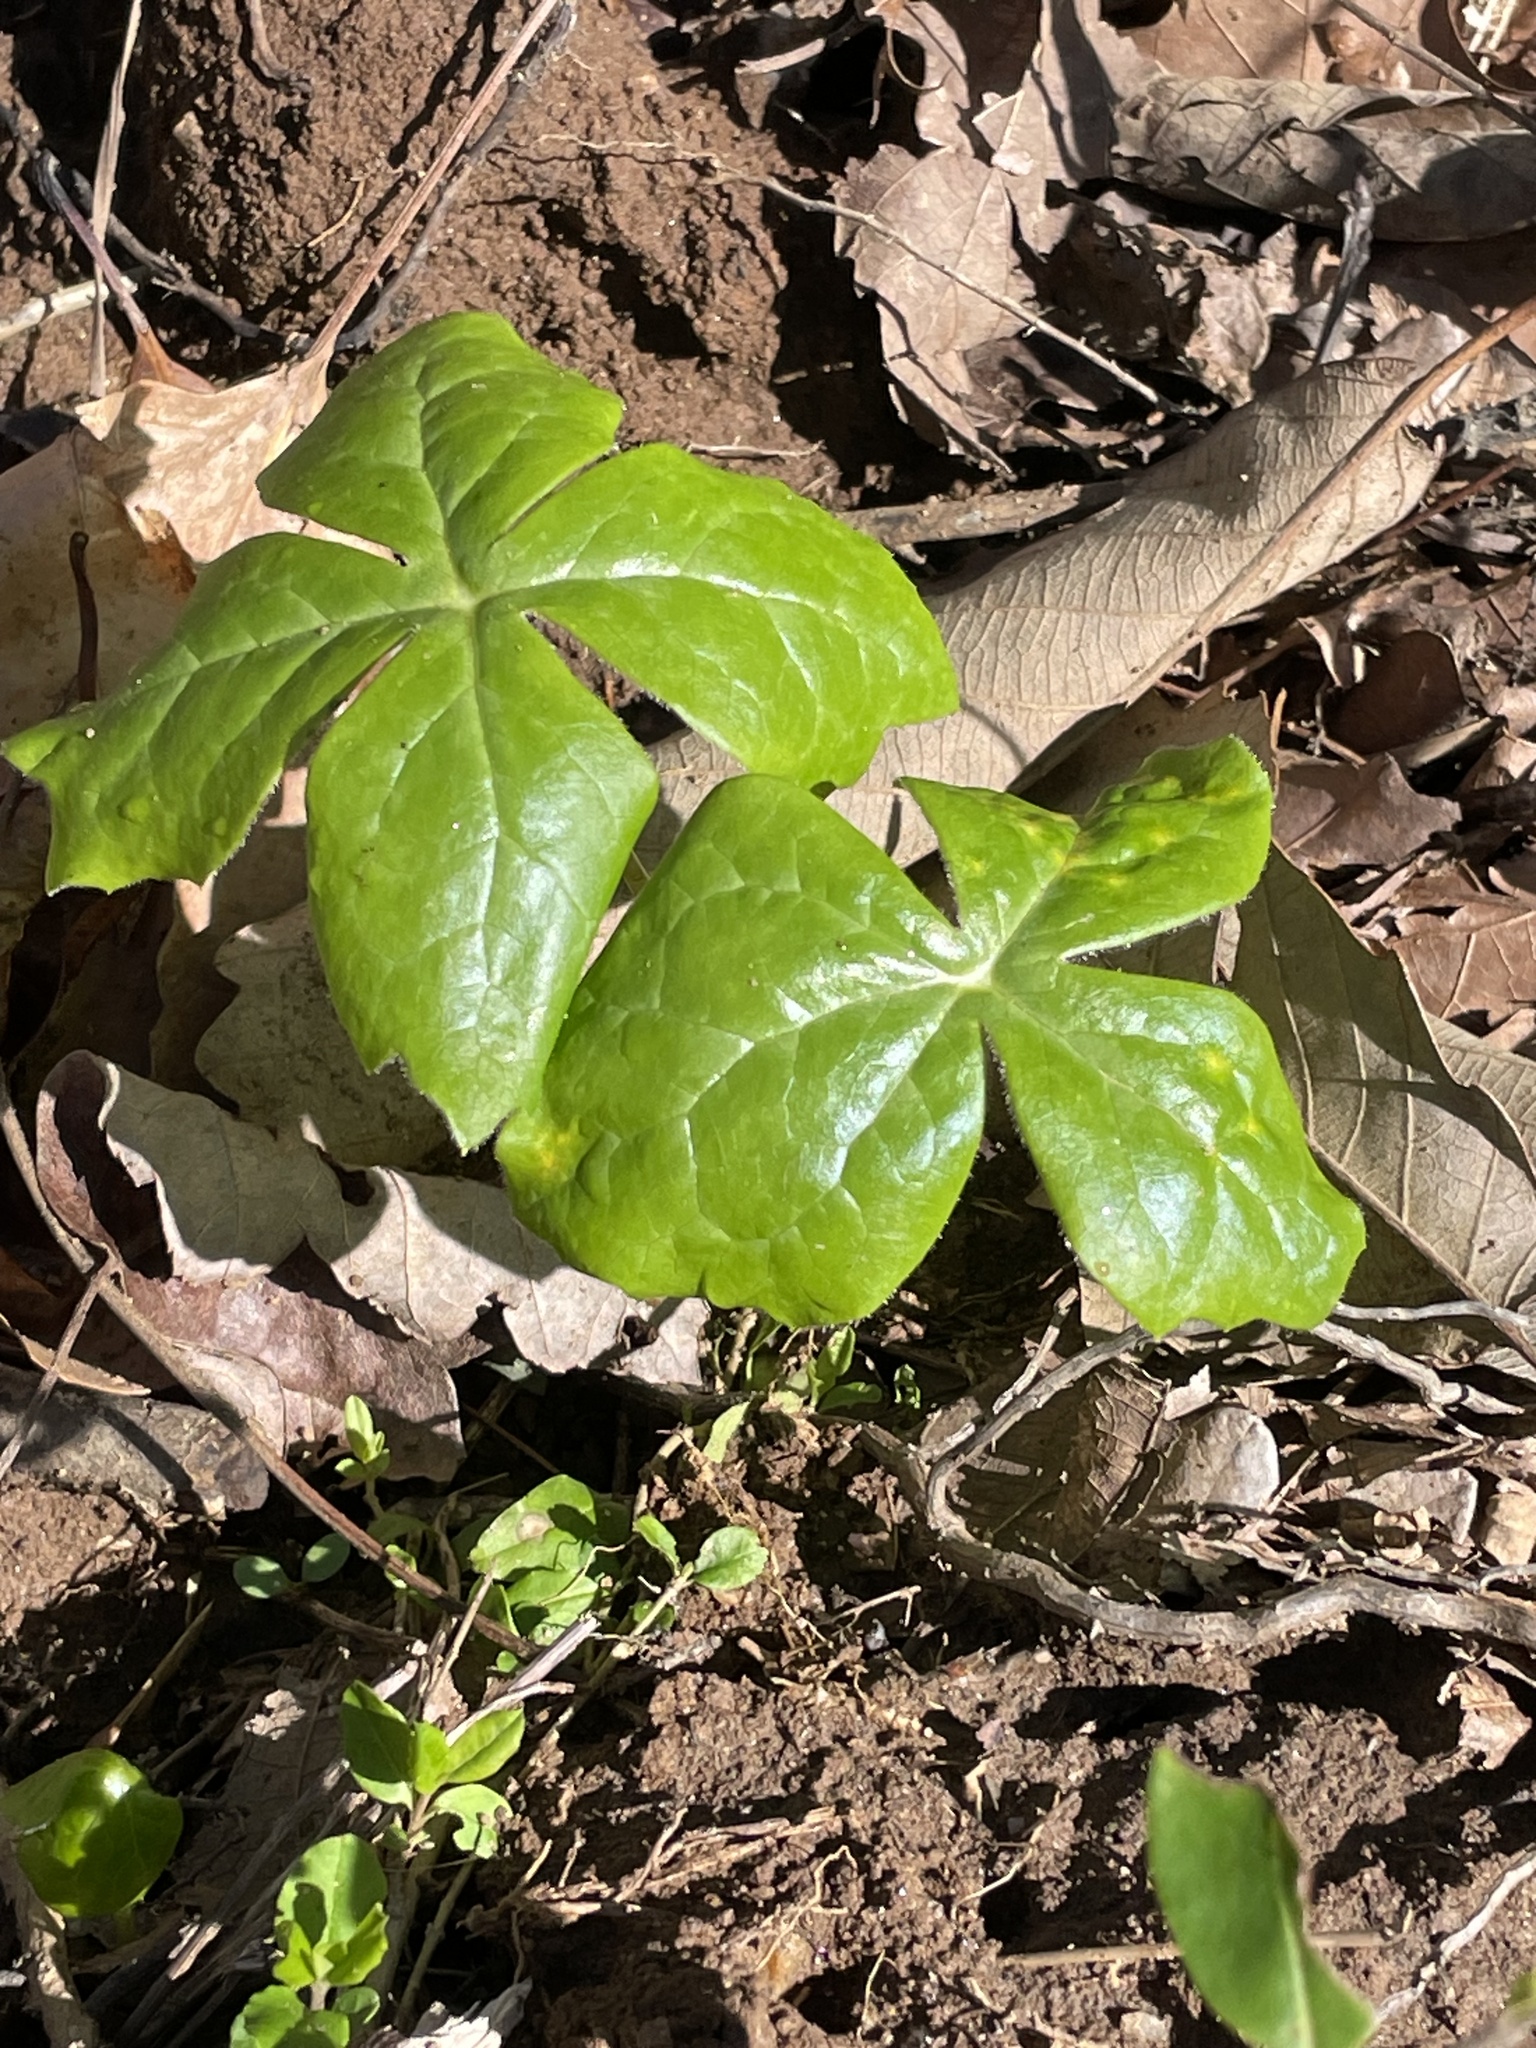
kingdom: Plantae
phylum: Tracheophyta
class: Magnoliopsida
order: Ranunculales
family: Berberidaceae
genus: Podophyllum
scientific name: Podophyllum peltatum
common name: Wild mandrake
